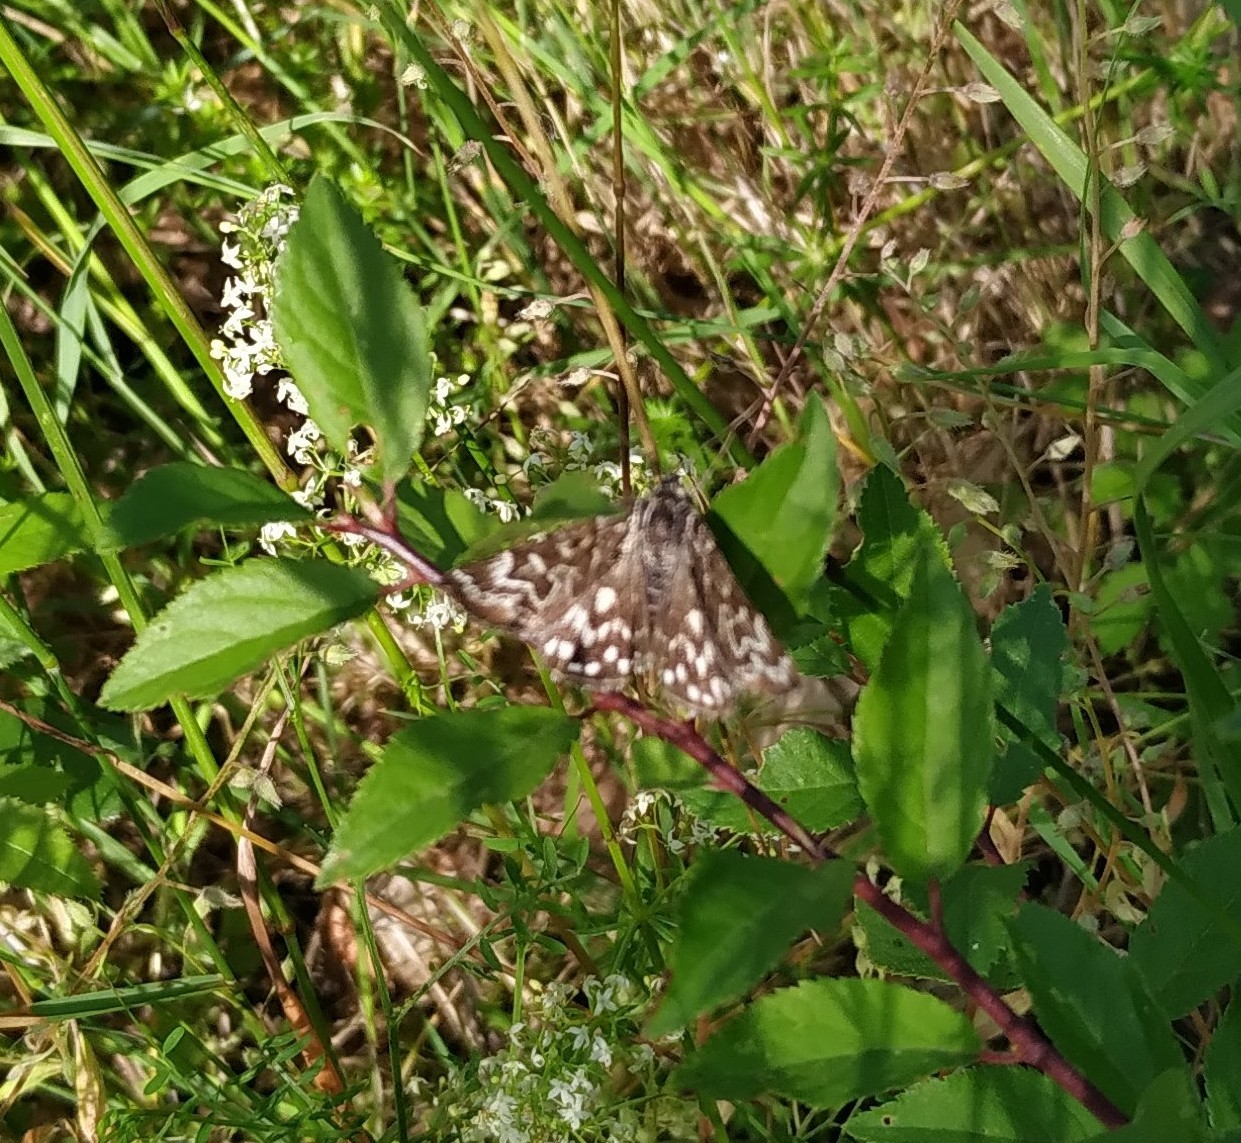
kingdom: Animalia
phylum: Arthropoda
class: Insecta
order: Lepidoptera
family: Erebidae
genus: Callistege
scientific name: Callistege mi
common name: Mother shipton
